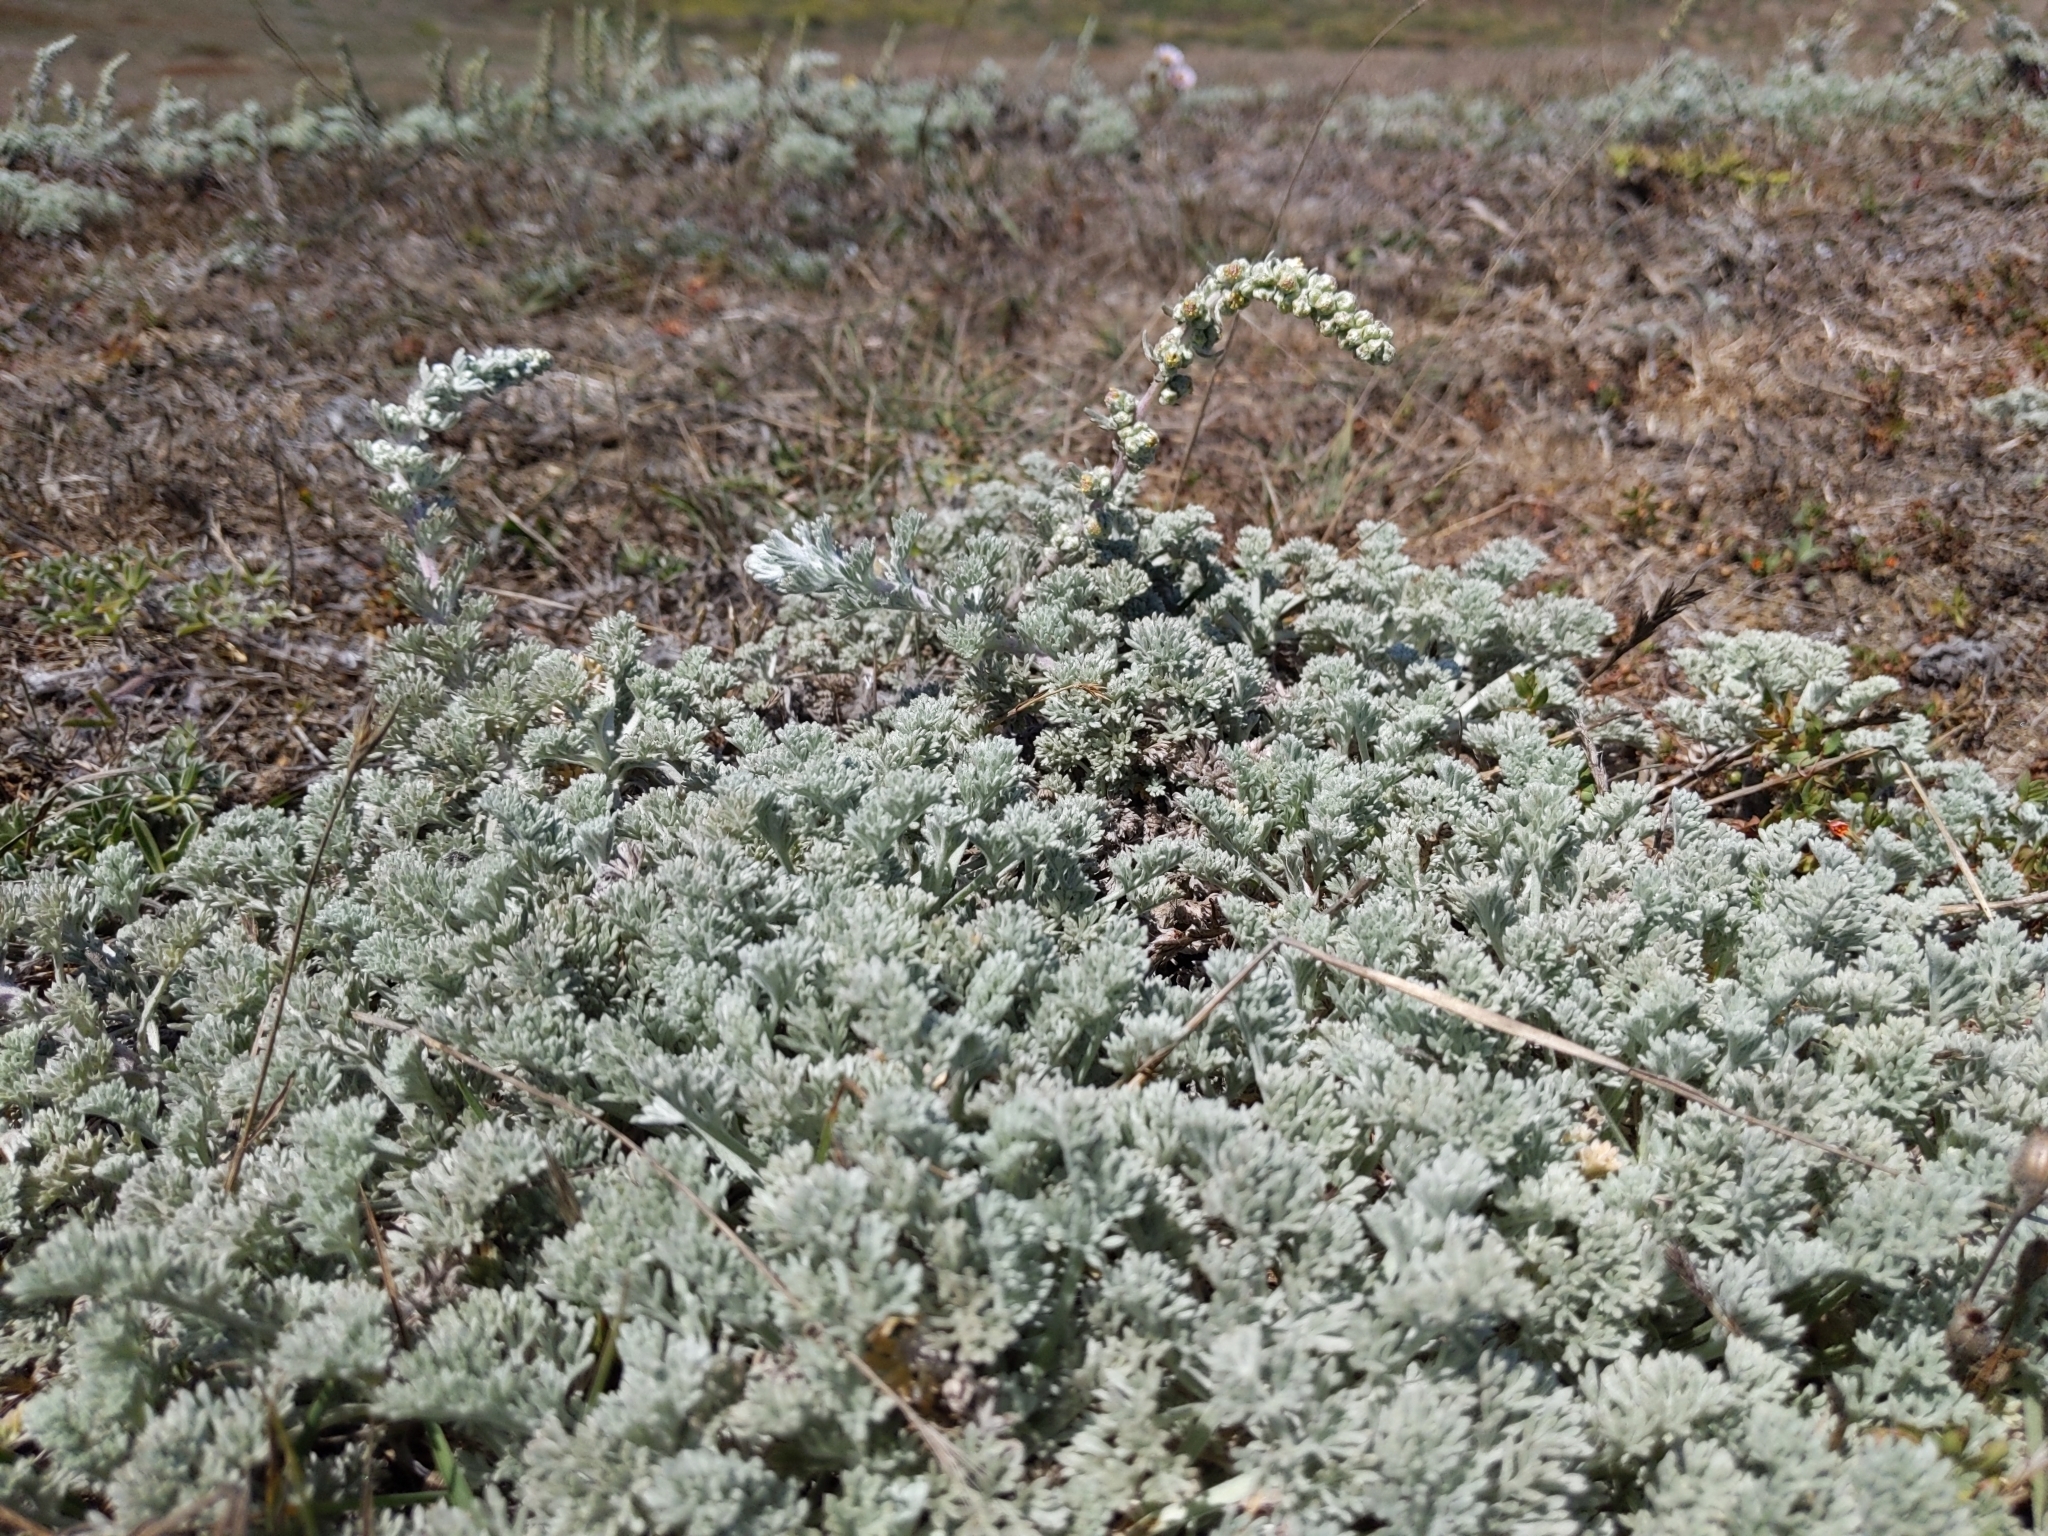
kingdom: Plantae
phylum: Tracheophyta
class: Magnoliopsida
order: Asterales
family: Asteraceae
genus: Artemisia
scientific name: Artemisia pycnocephala
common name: Coastal sagewort
